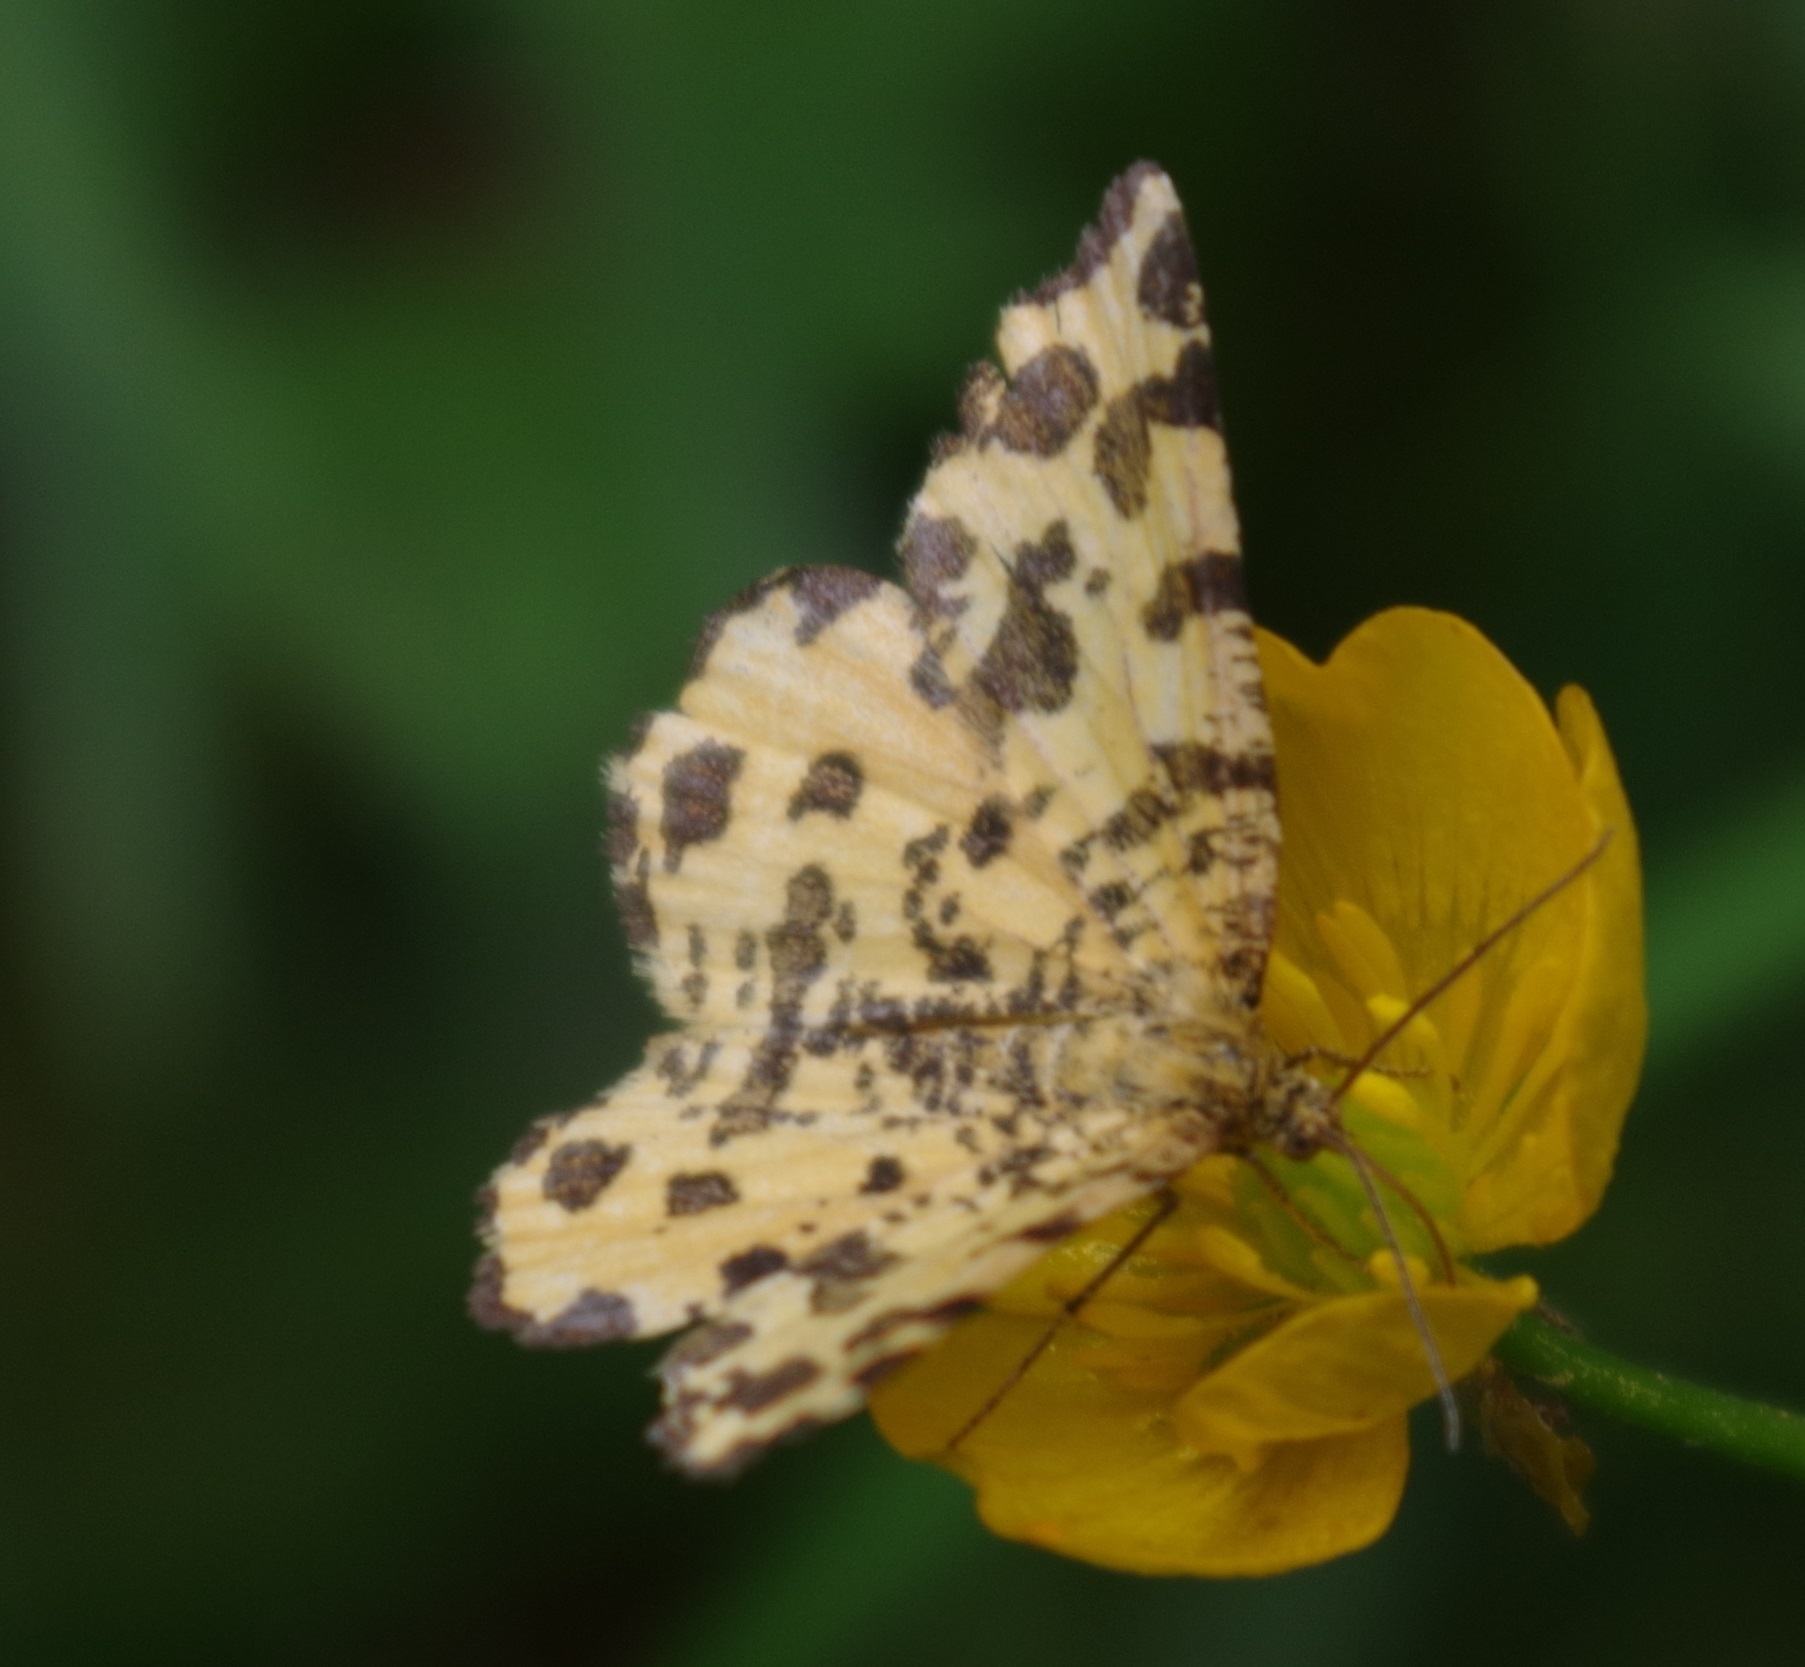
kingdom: Animalia
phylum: Arthropoda
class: Insecta
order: Lepidoptera
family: Geometridae
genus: Pseudopanthera
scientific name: Pseudopanthera macularia
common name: Speckled yellow
